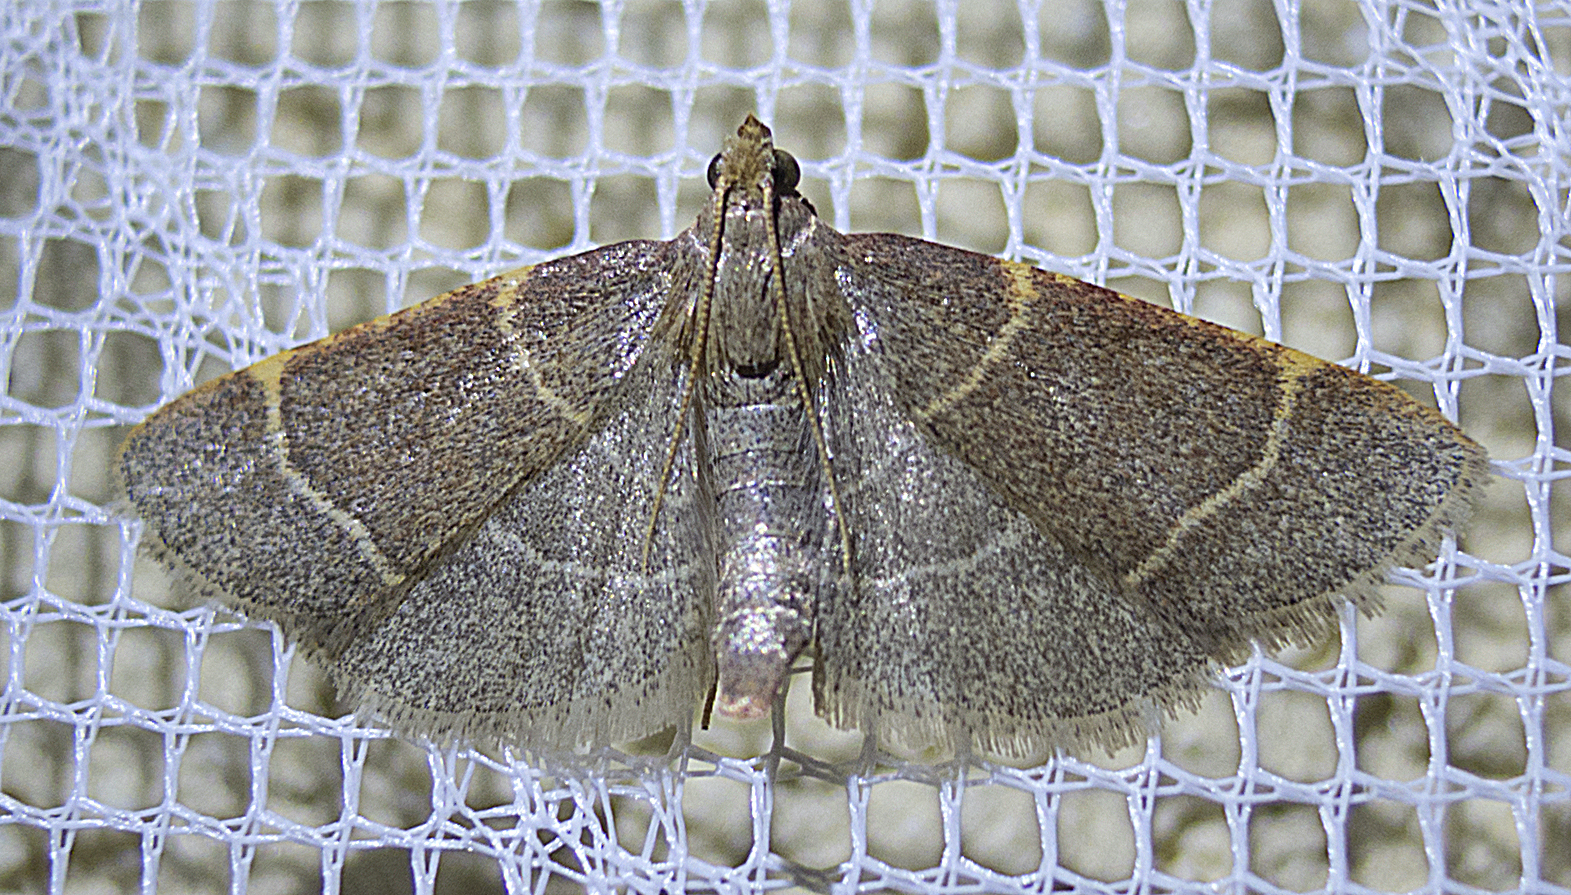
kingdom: Animalia
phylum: Arthropoda
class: Insecta
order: Lepidoptera
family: Pyralidae
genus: Hypsopygia
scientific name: Hypsopygia glaucinalis
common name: Double-striped tabby
